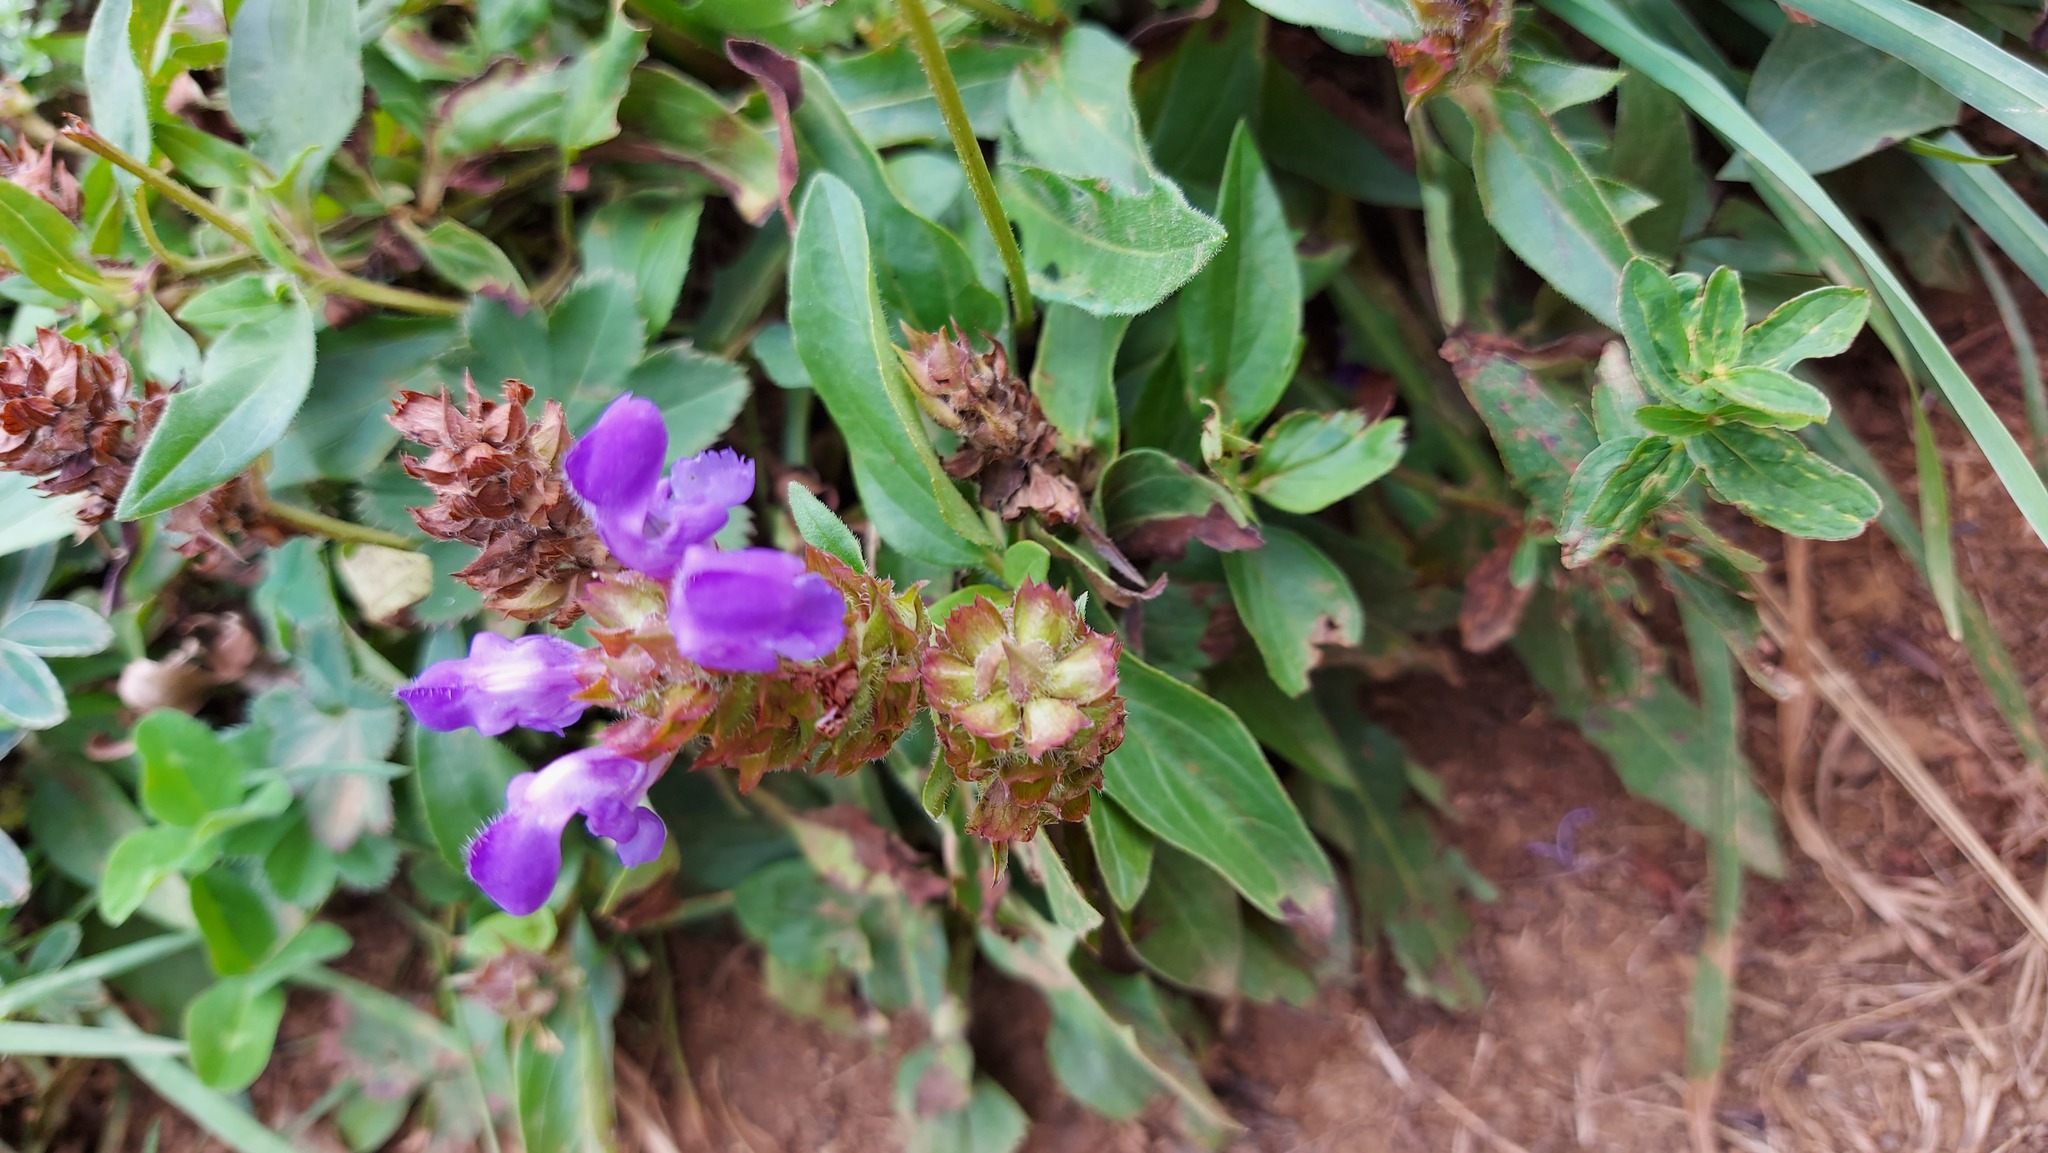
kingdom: Plantae
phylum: Tracheophyta
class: Magnoliopsida
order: Lamiales
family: Lamiaceae
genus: Prunella
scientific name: Prunella grandiflora
